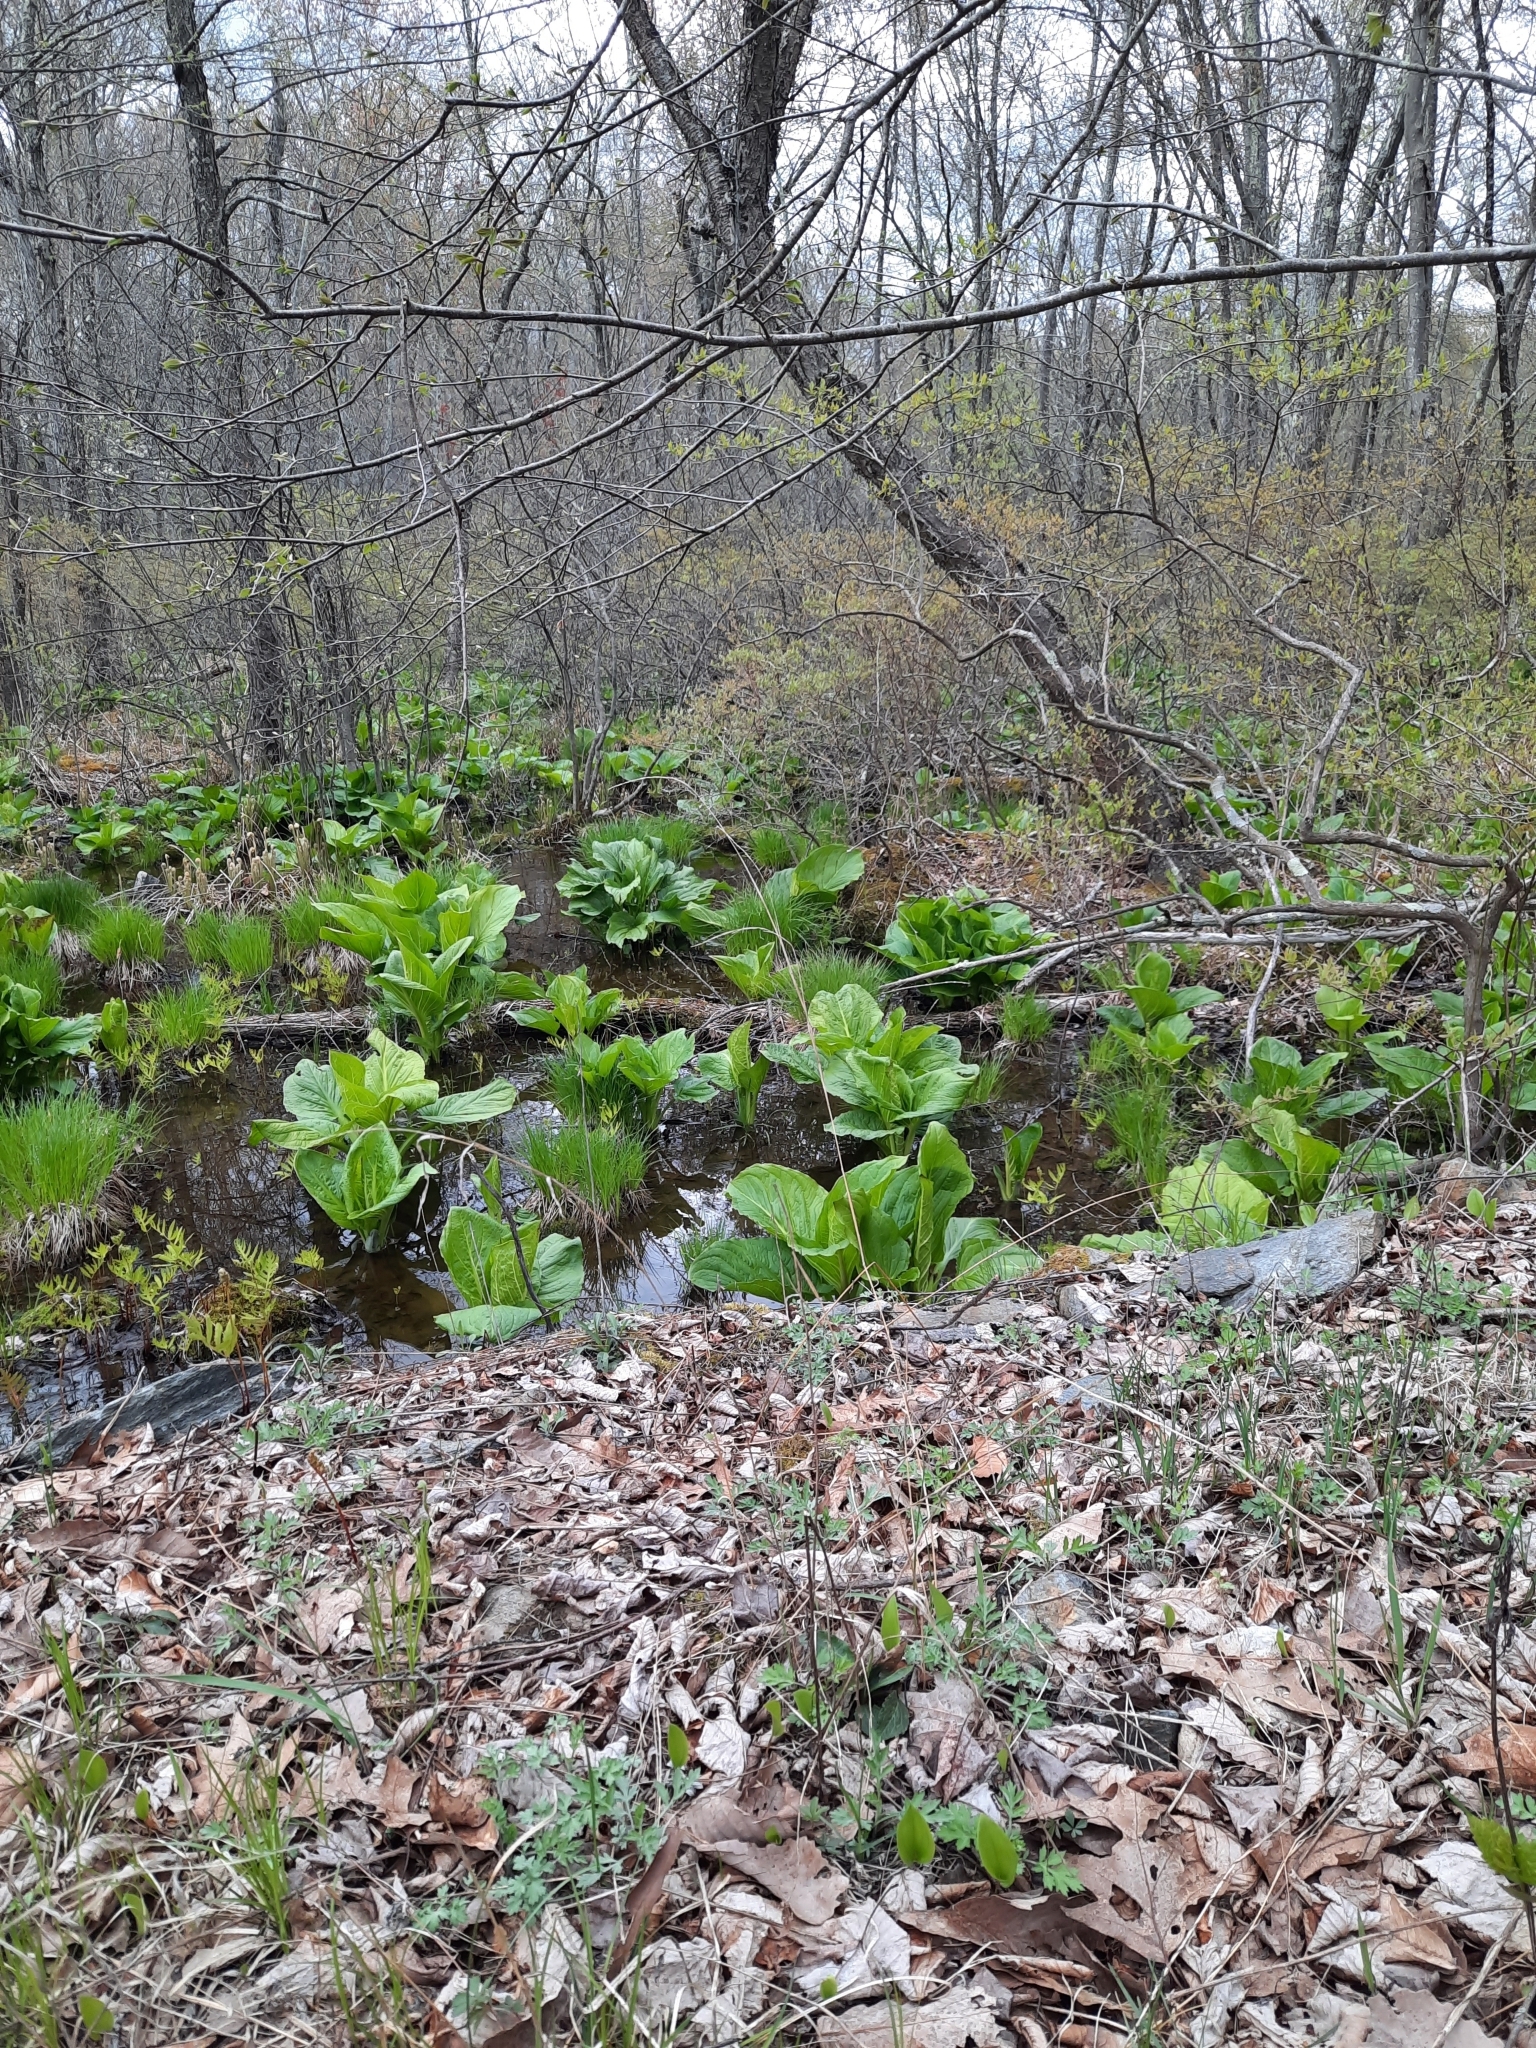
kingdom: Plantae
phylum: Tracheophyta
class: Liliopsida
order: Alismatales
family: Araceae
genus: Symplocarpus
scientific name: Symplocarpus foetidus
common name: Eastern skunk cabbage
